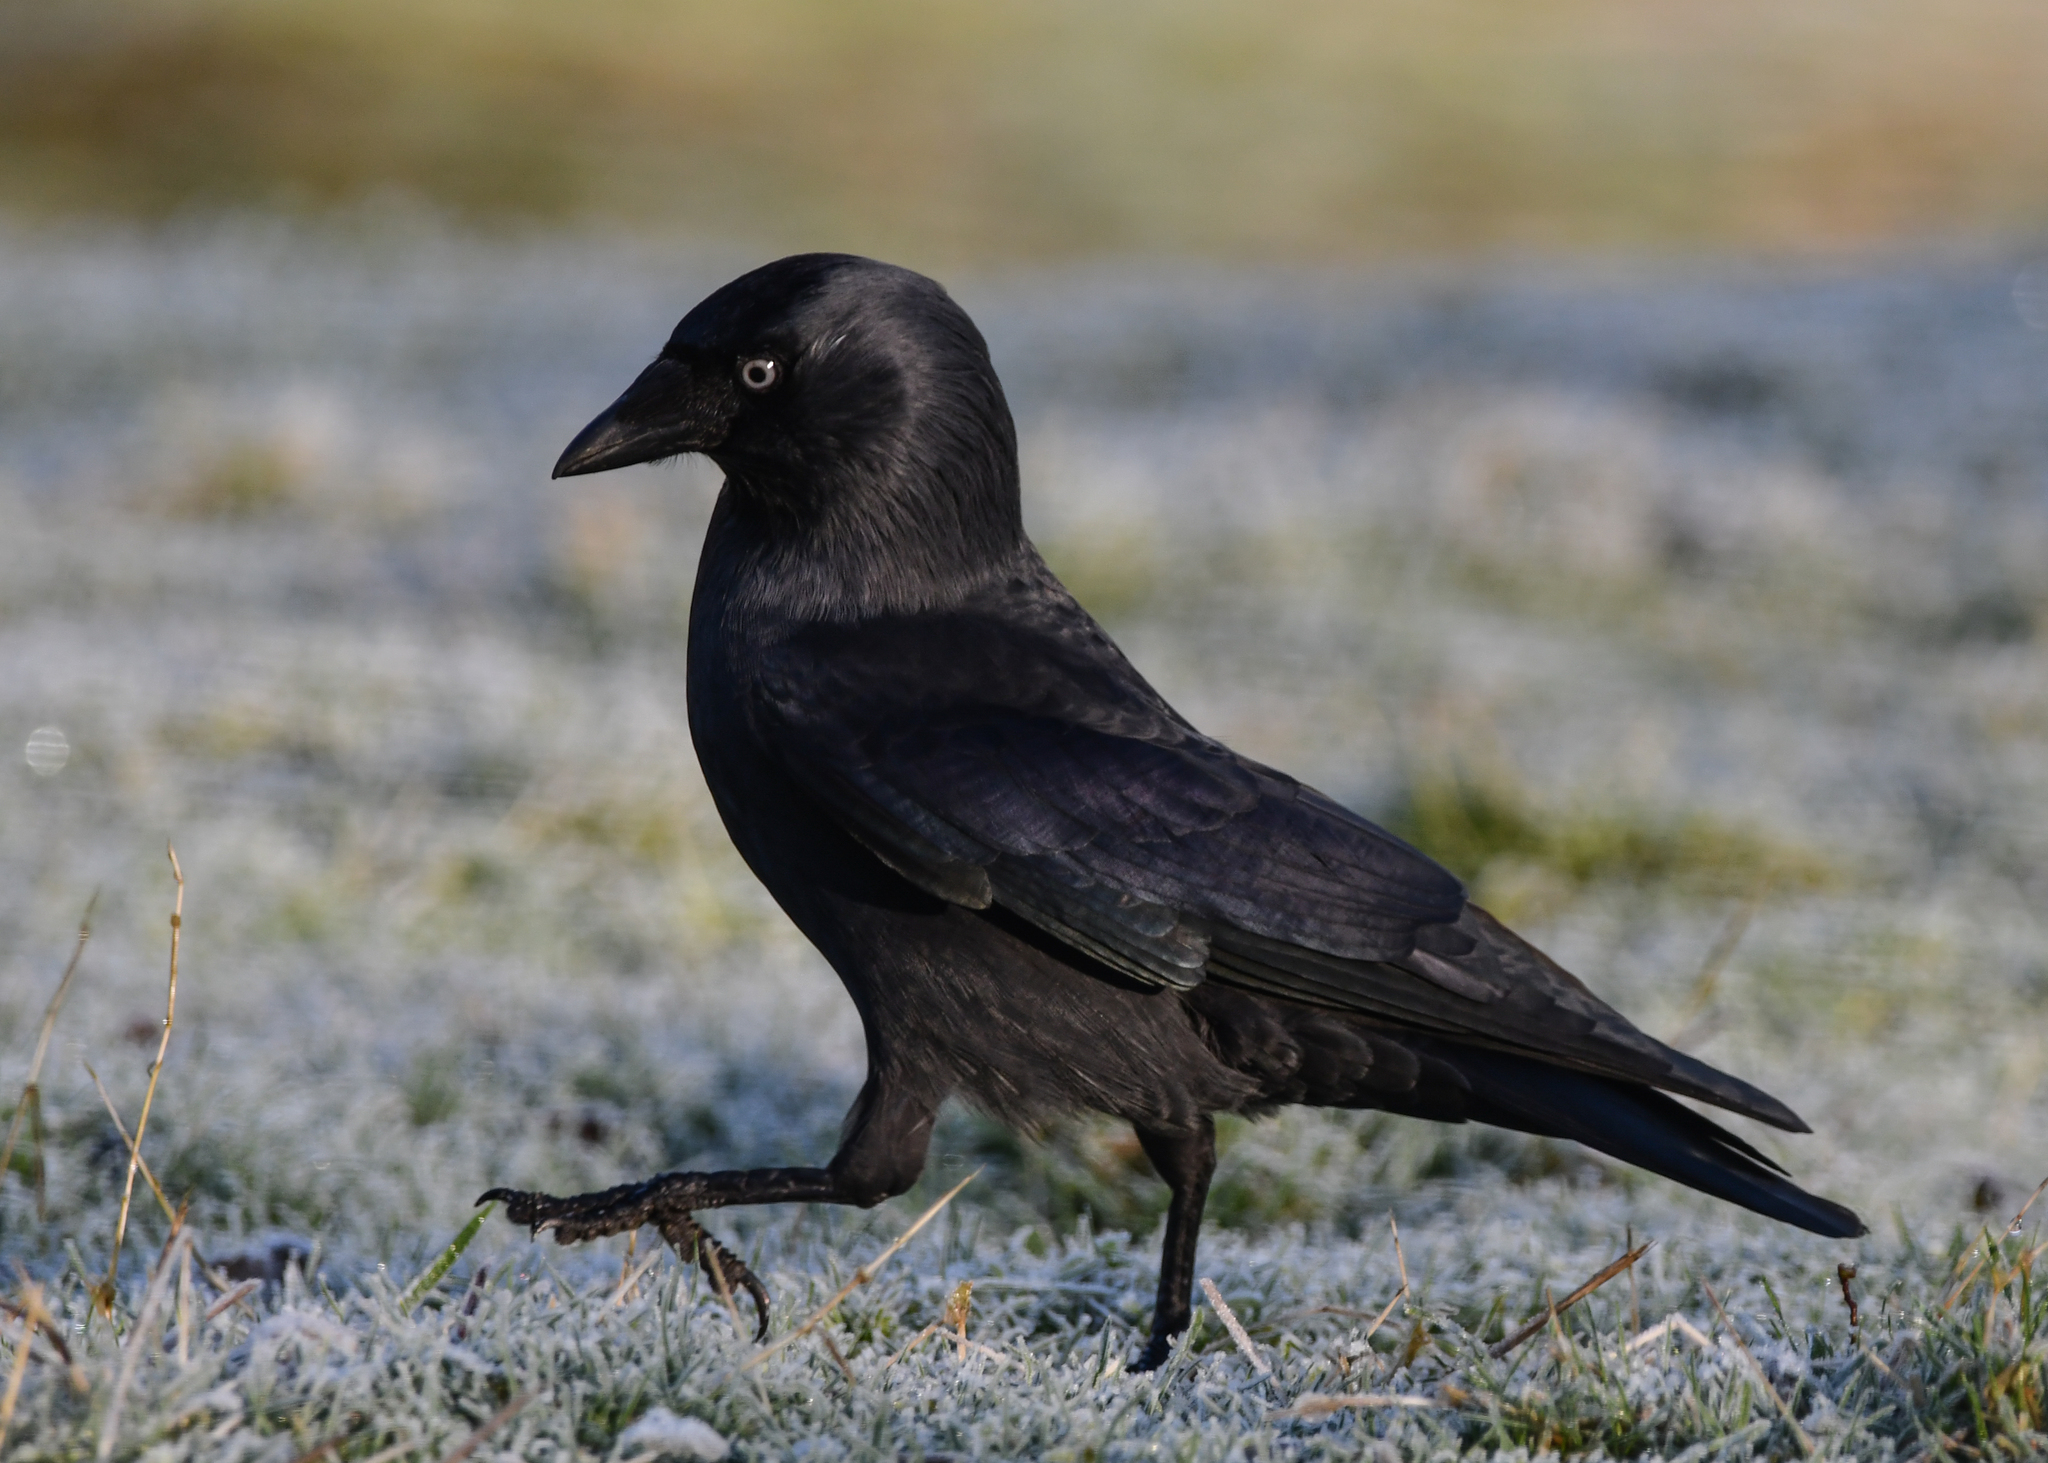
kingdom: Animalia
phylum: Chordata
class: Aves
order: Passeriformes
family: Corvidae
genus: Coloeus
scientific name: Coloeus monedula
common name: Western jackdaw
